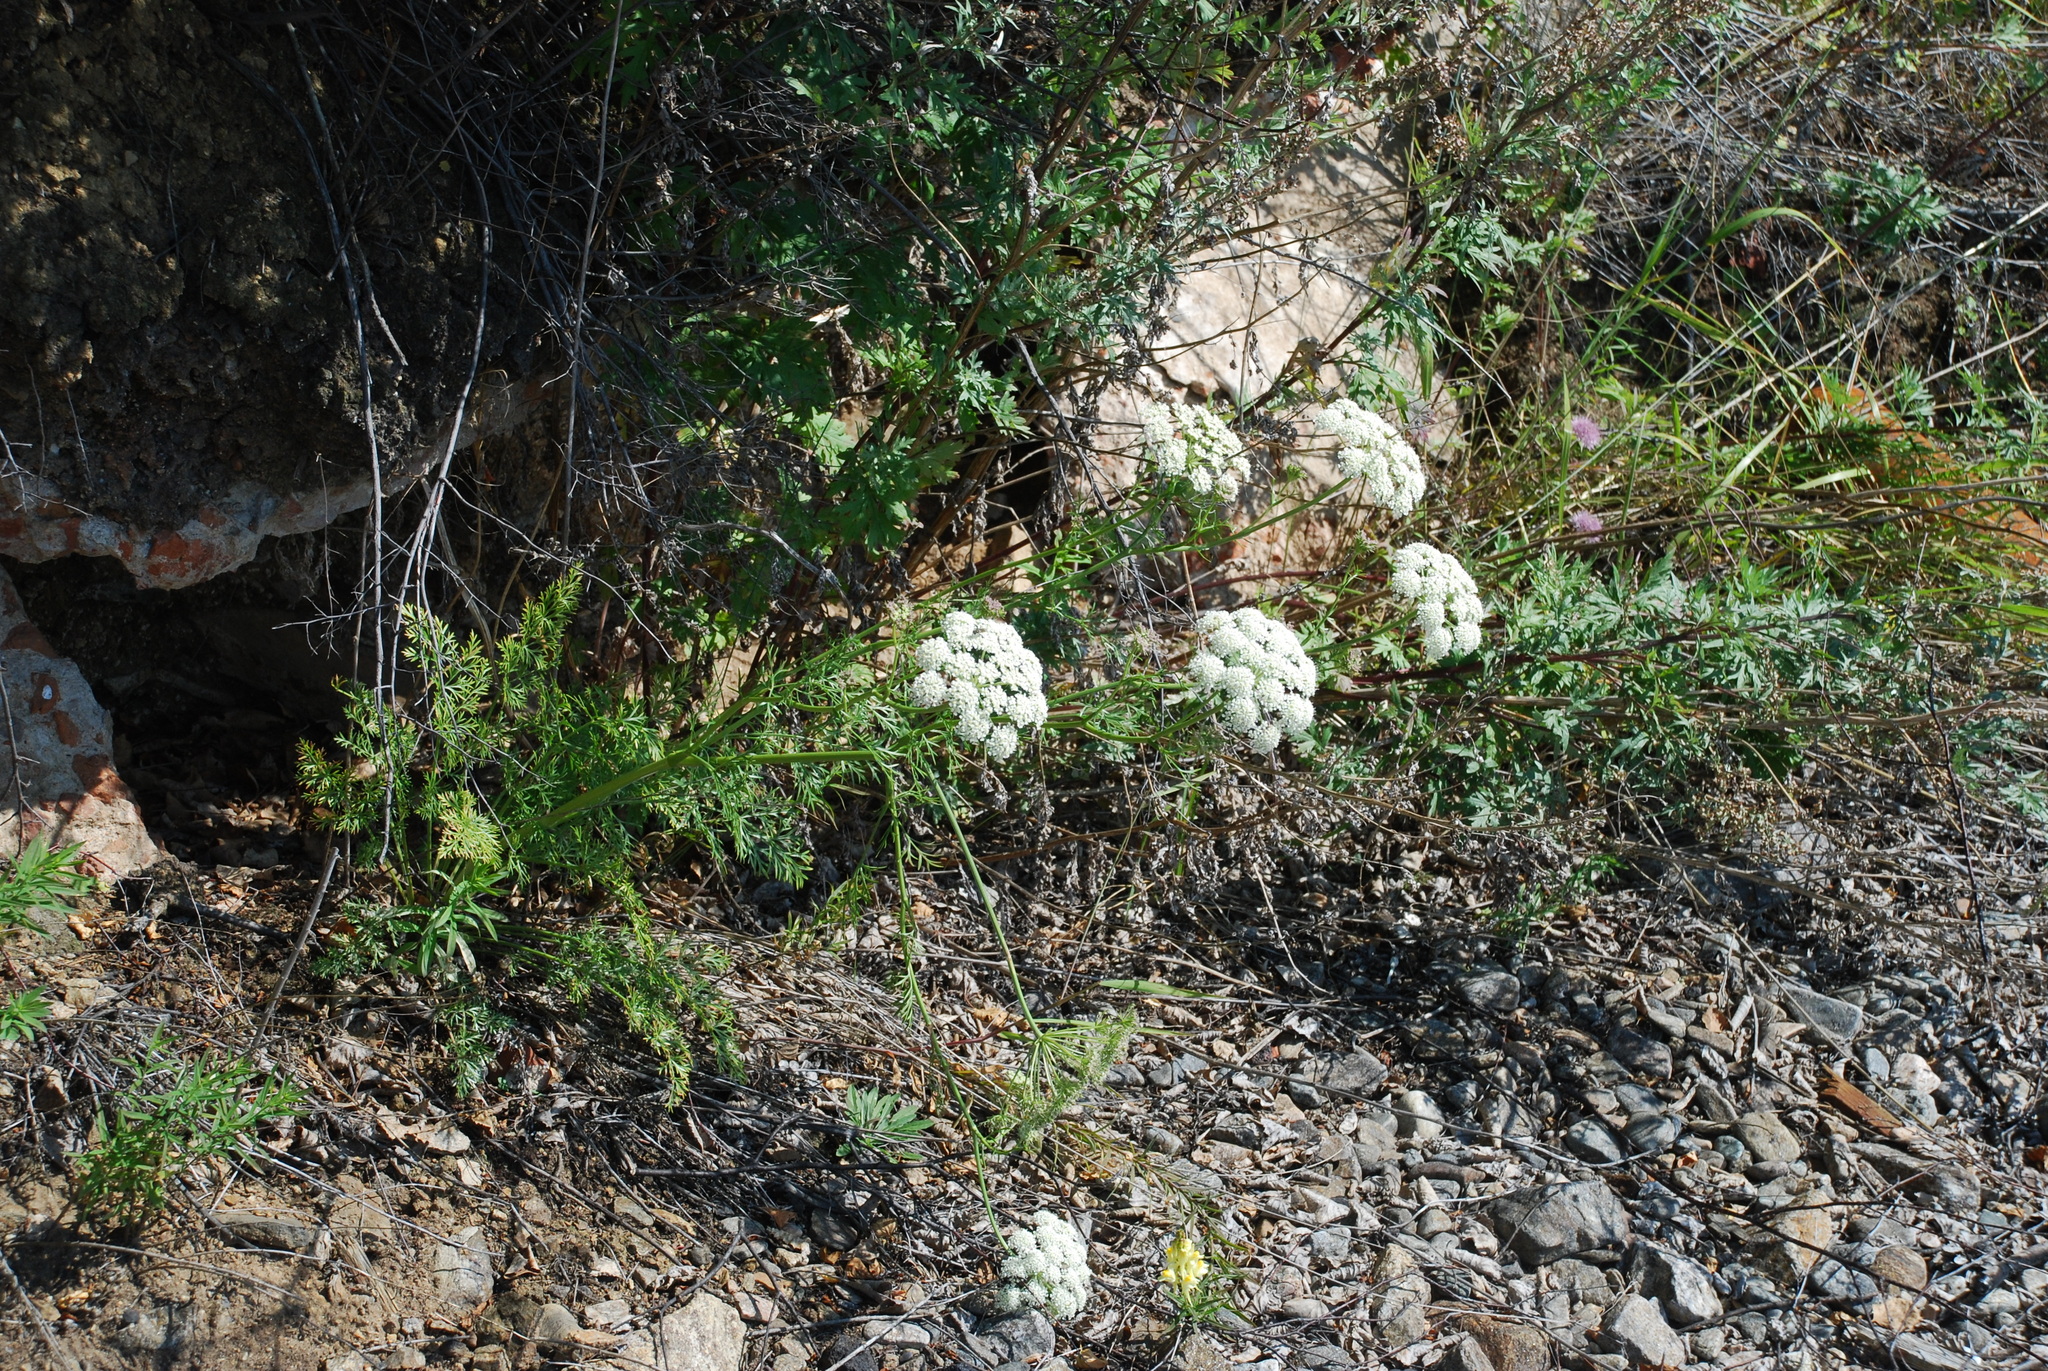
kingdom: Plantae
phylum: Tracheophyta
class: Magnoliopsida
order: Apiales
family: Apiaceae
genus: Kitagawia
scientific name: Kitagawia baicalensis
